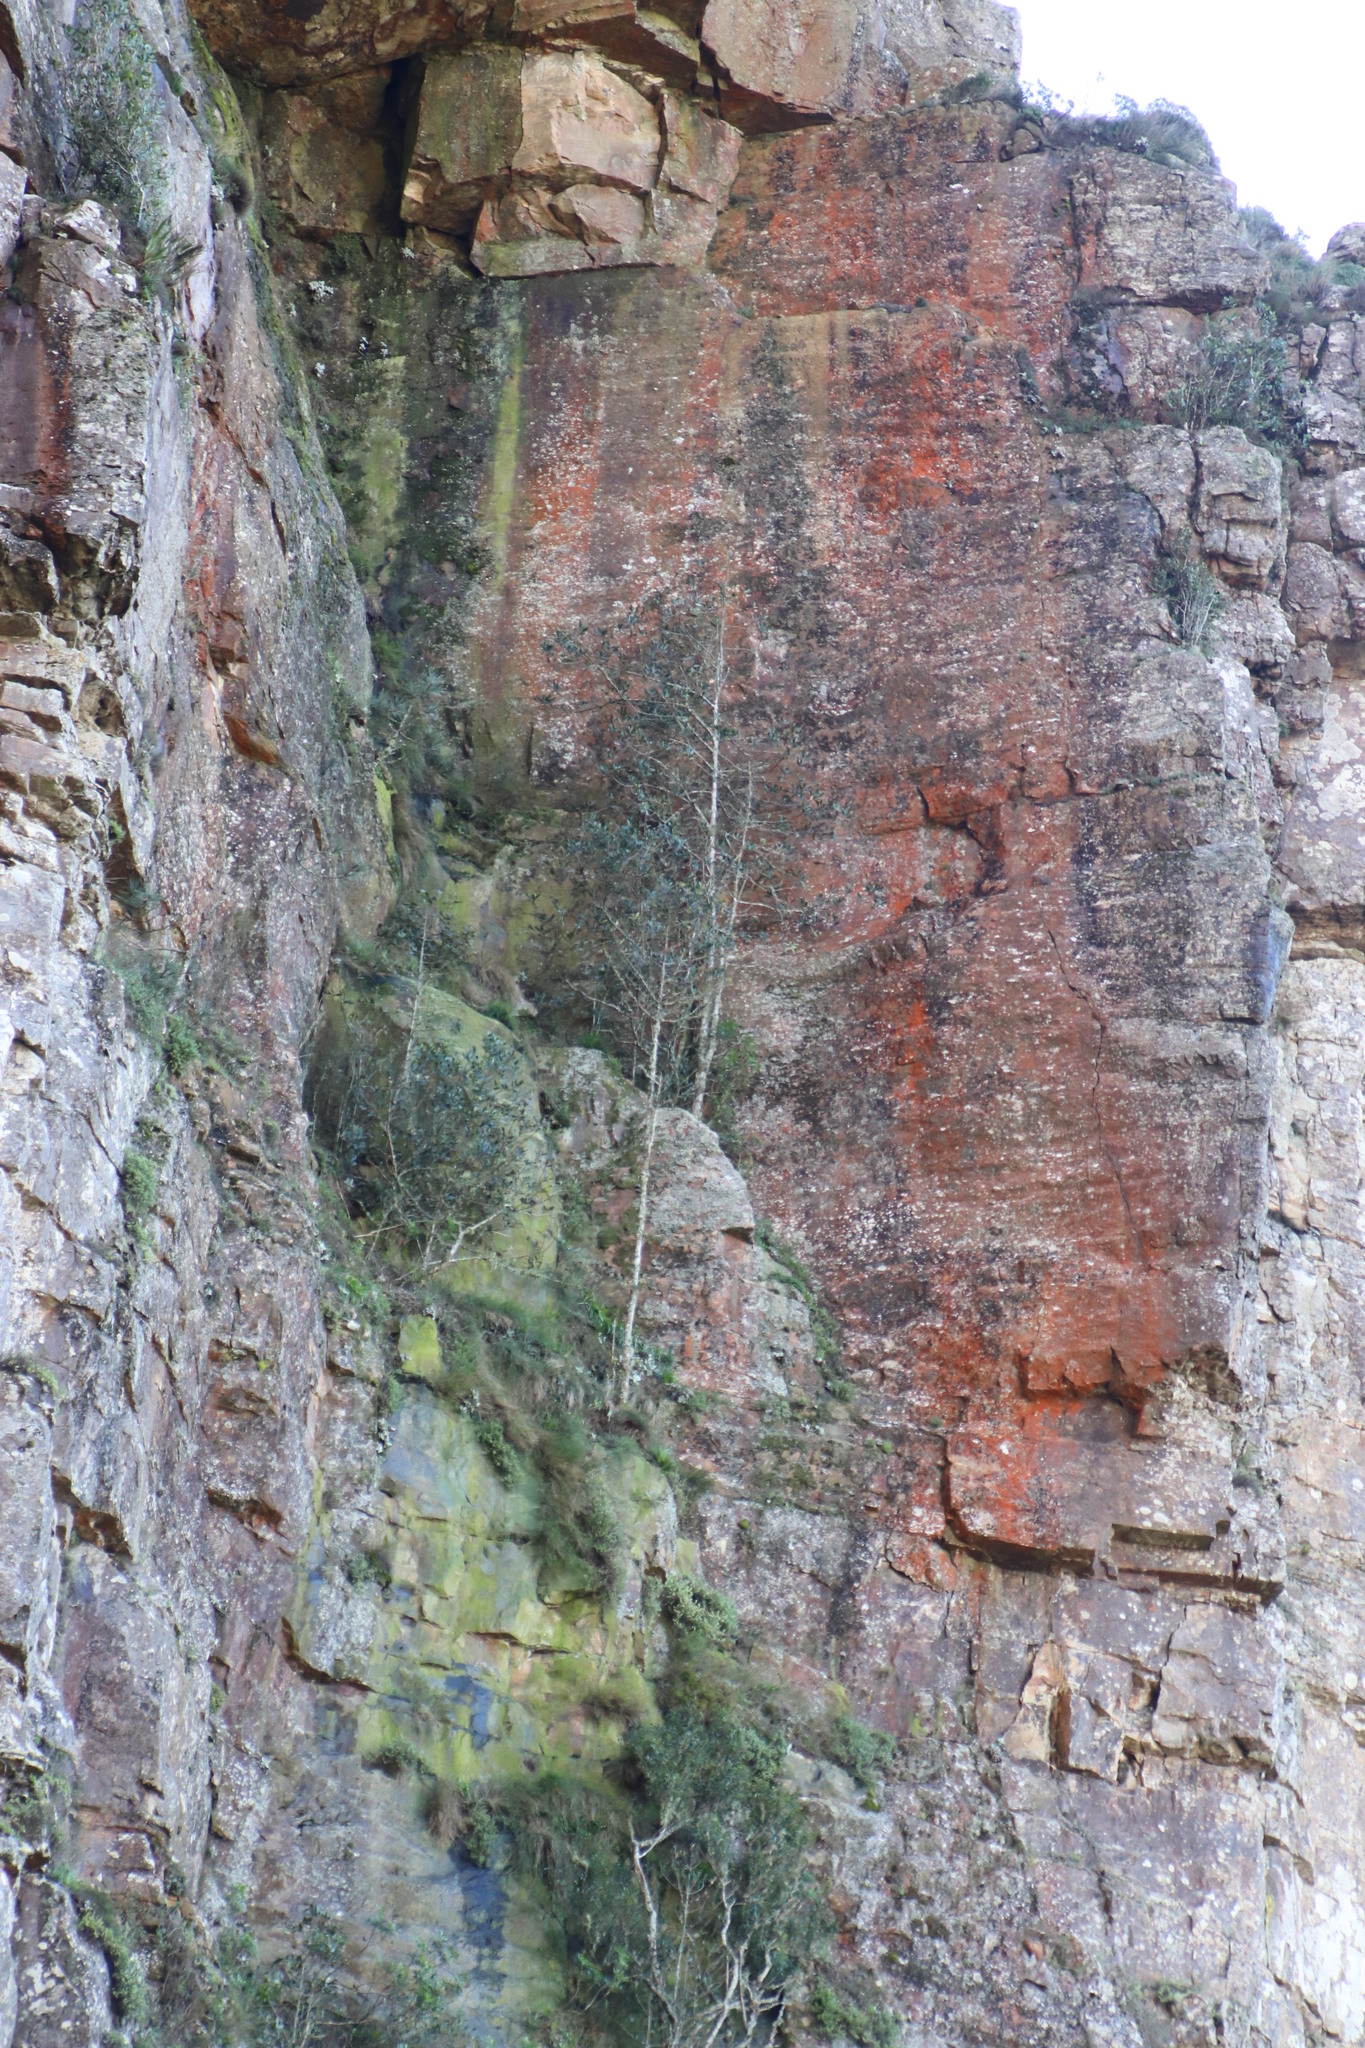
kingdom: Plantae
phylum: Tracheophyta
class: Magnoliopsida
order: Ericales
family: Primulaceae
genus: Myrsine
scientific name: Myrsine melanophloeos
